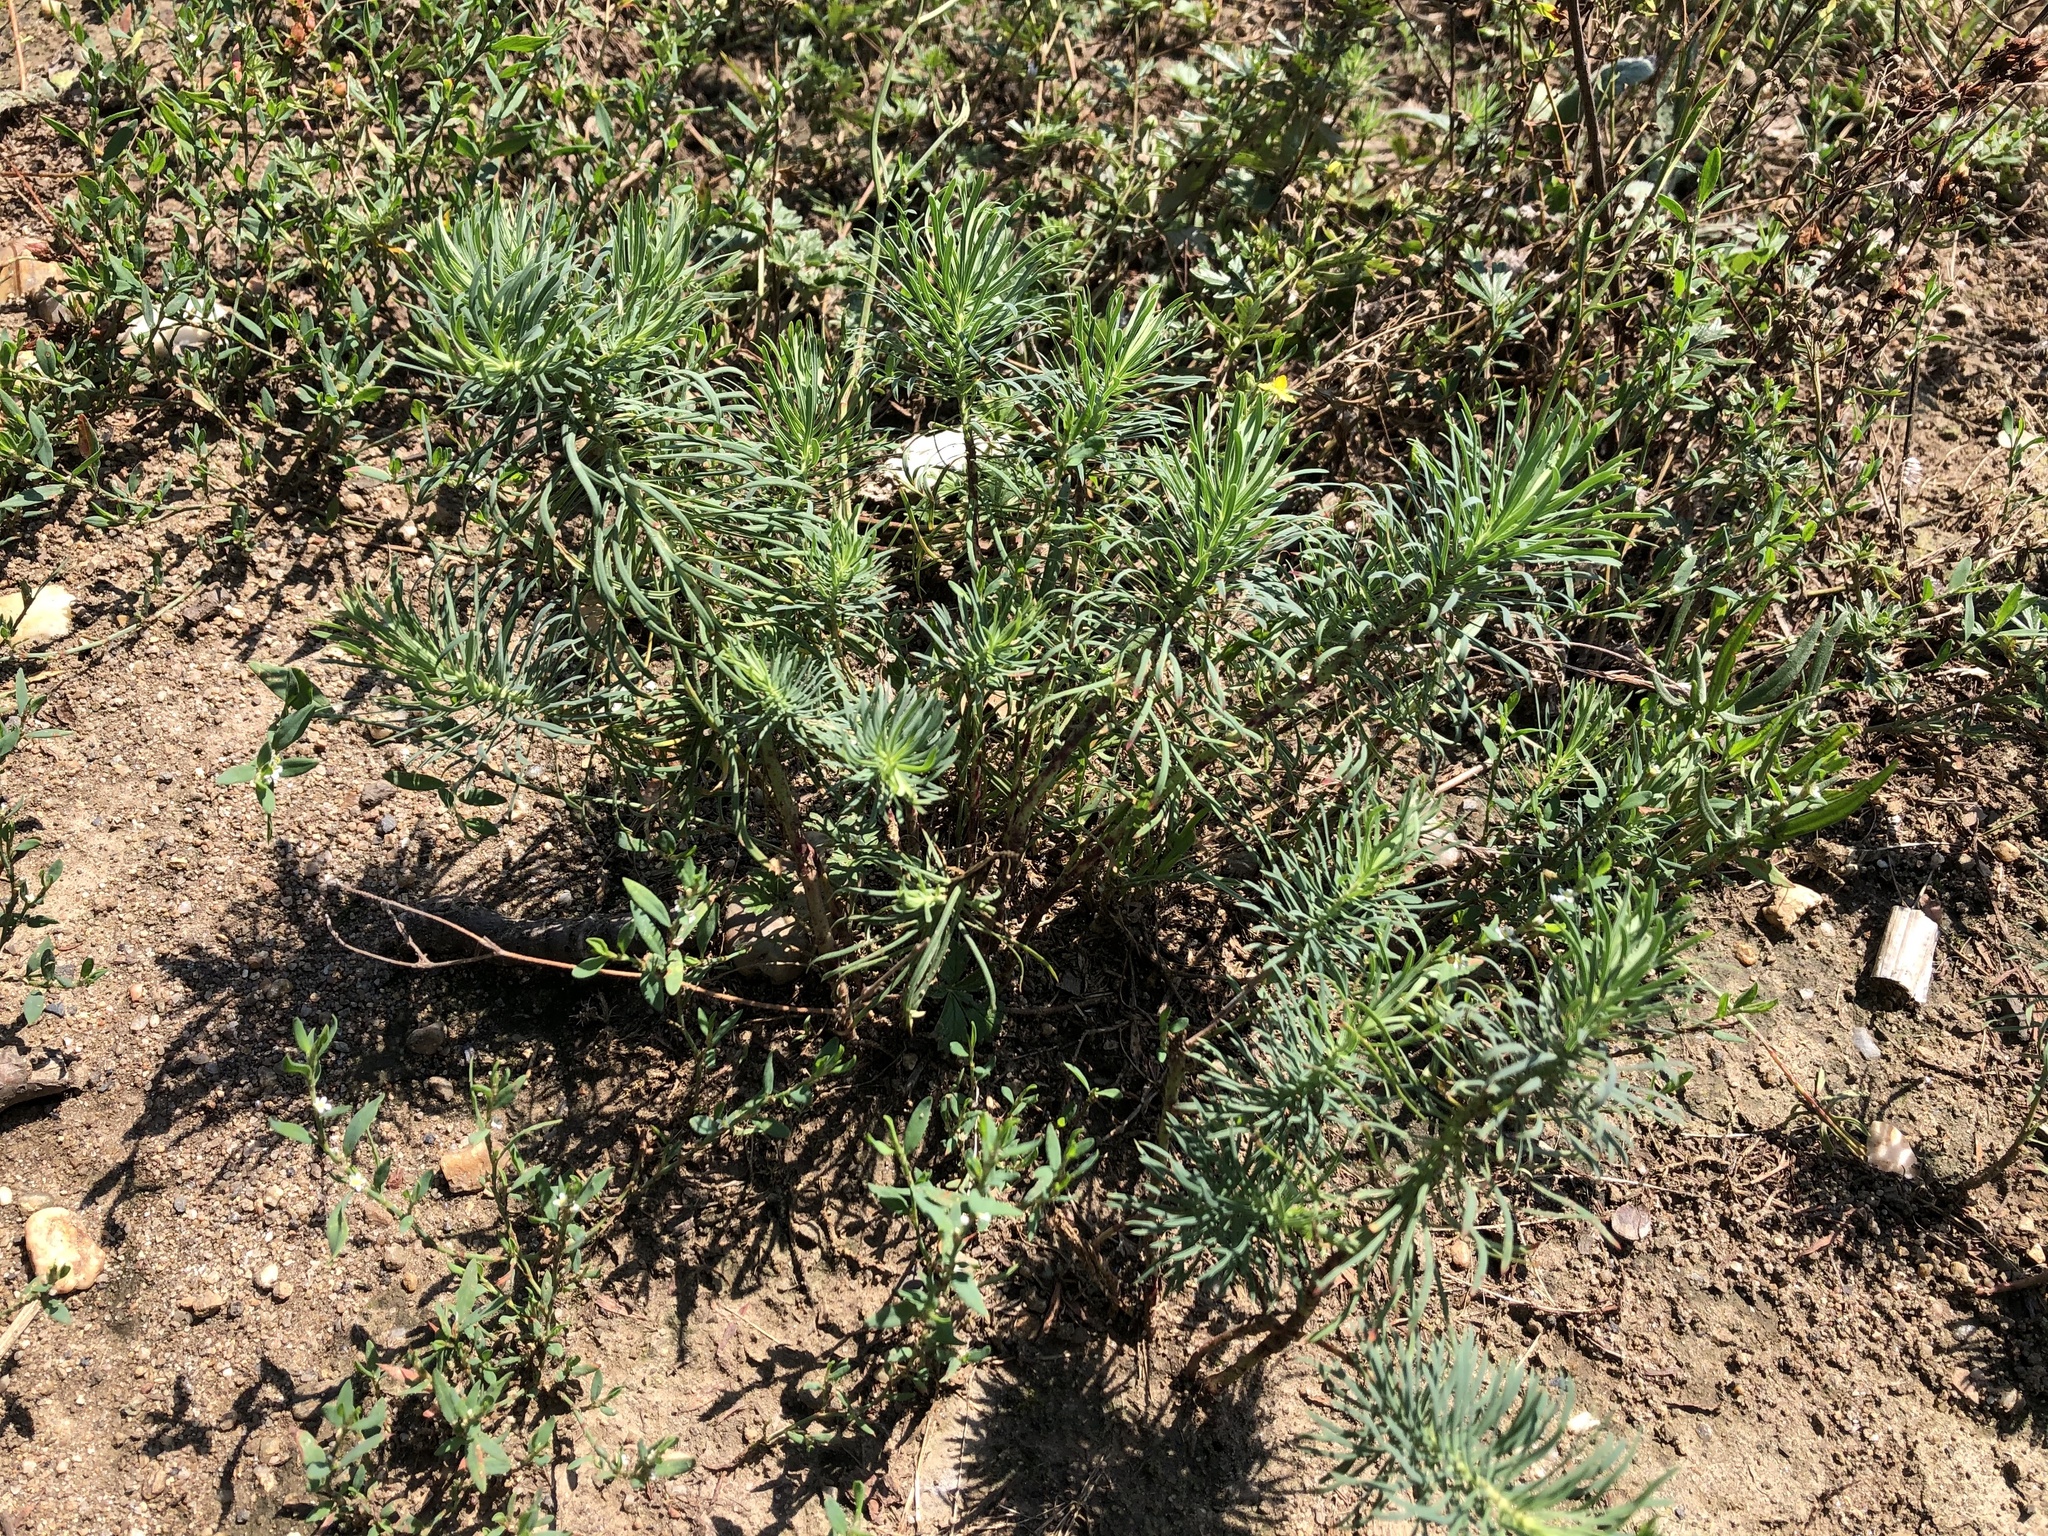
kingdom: Plantae
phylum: Tracheophyta
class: Magnoliopsida
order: Malpighiales
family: Euphorbiaceae
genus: Euphorbia
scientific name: Euphorbia cyparissias
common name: Cypress spurge
